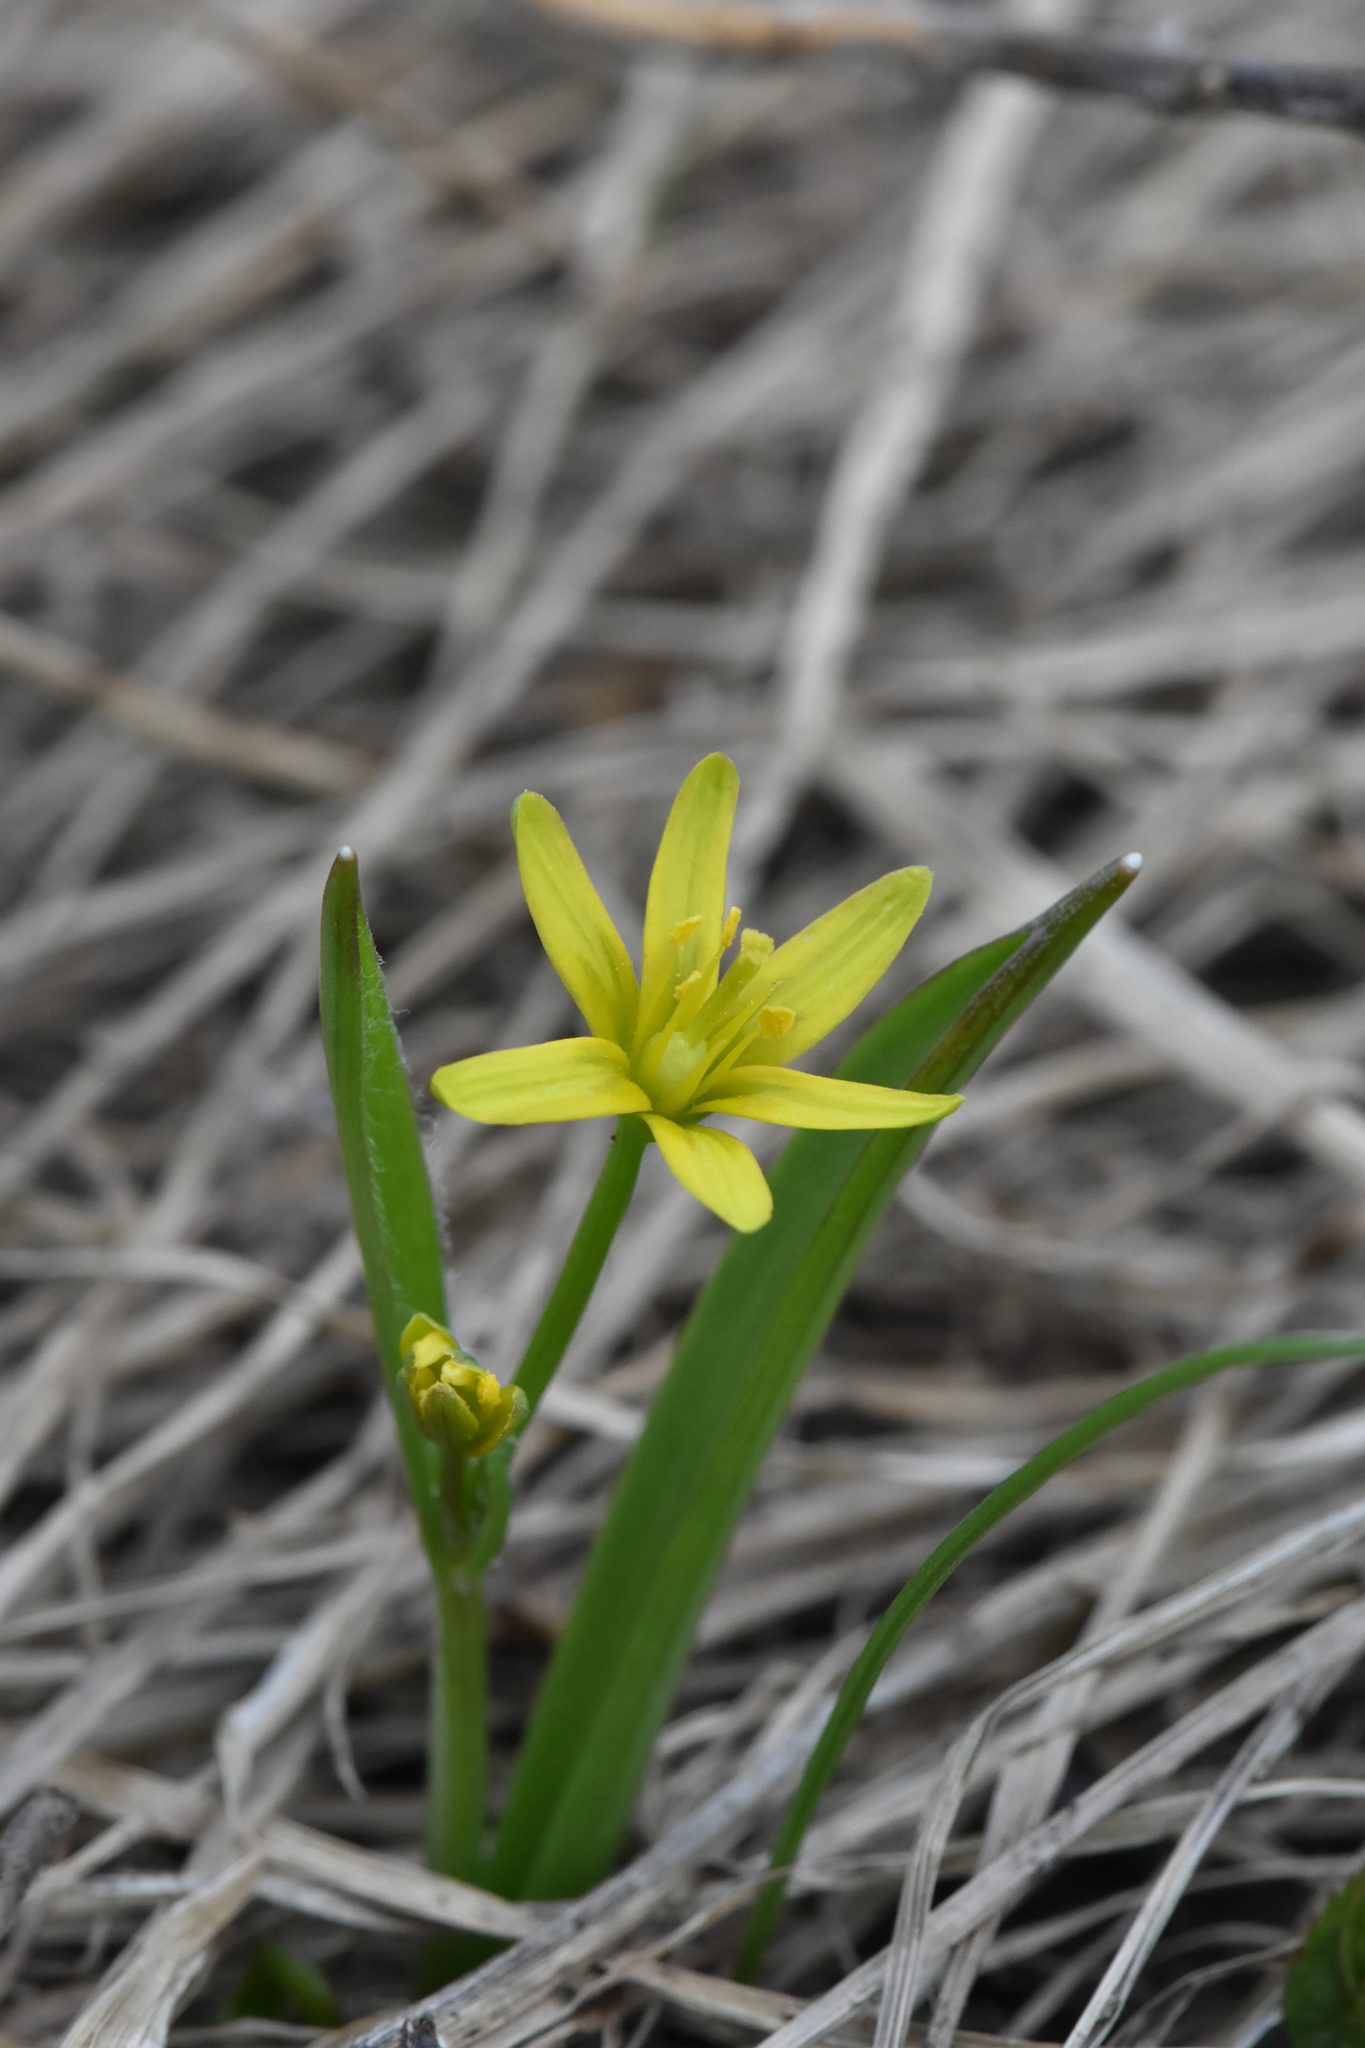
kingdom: Plantae
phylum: Tracheophyta
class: Liliopsida
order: Liliales
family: Liliaceae
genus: Gagea
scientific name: Gagea lutea
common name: Yellow star-of-bethlehem
